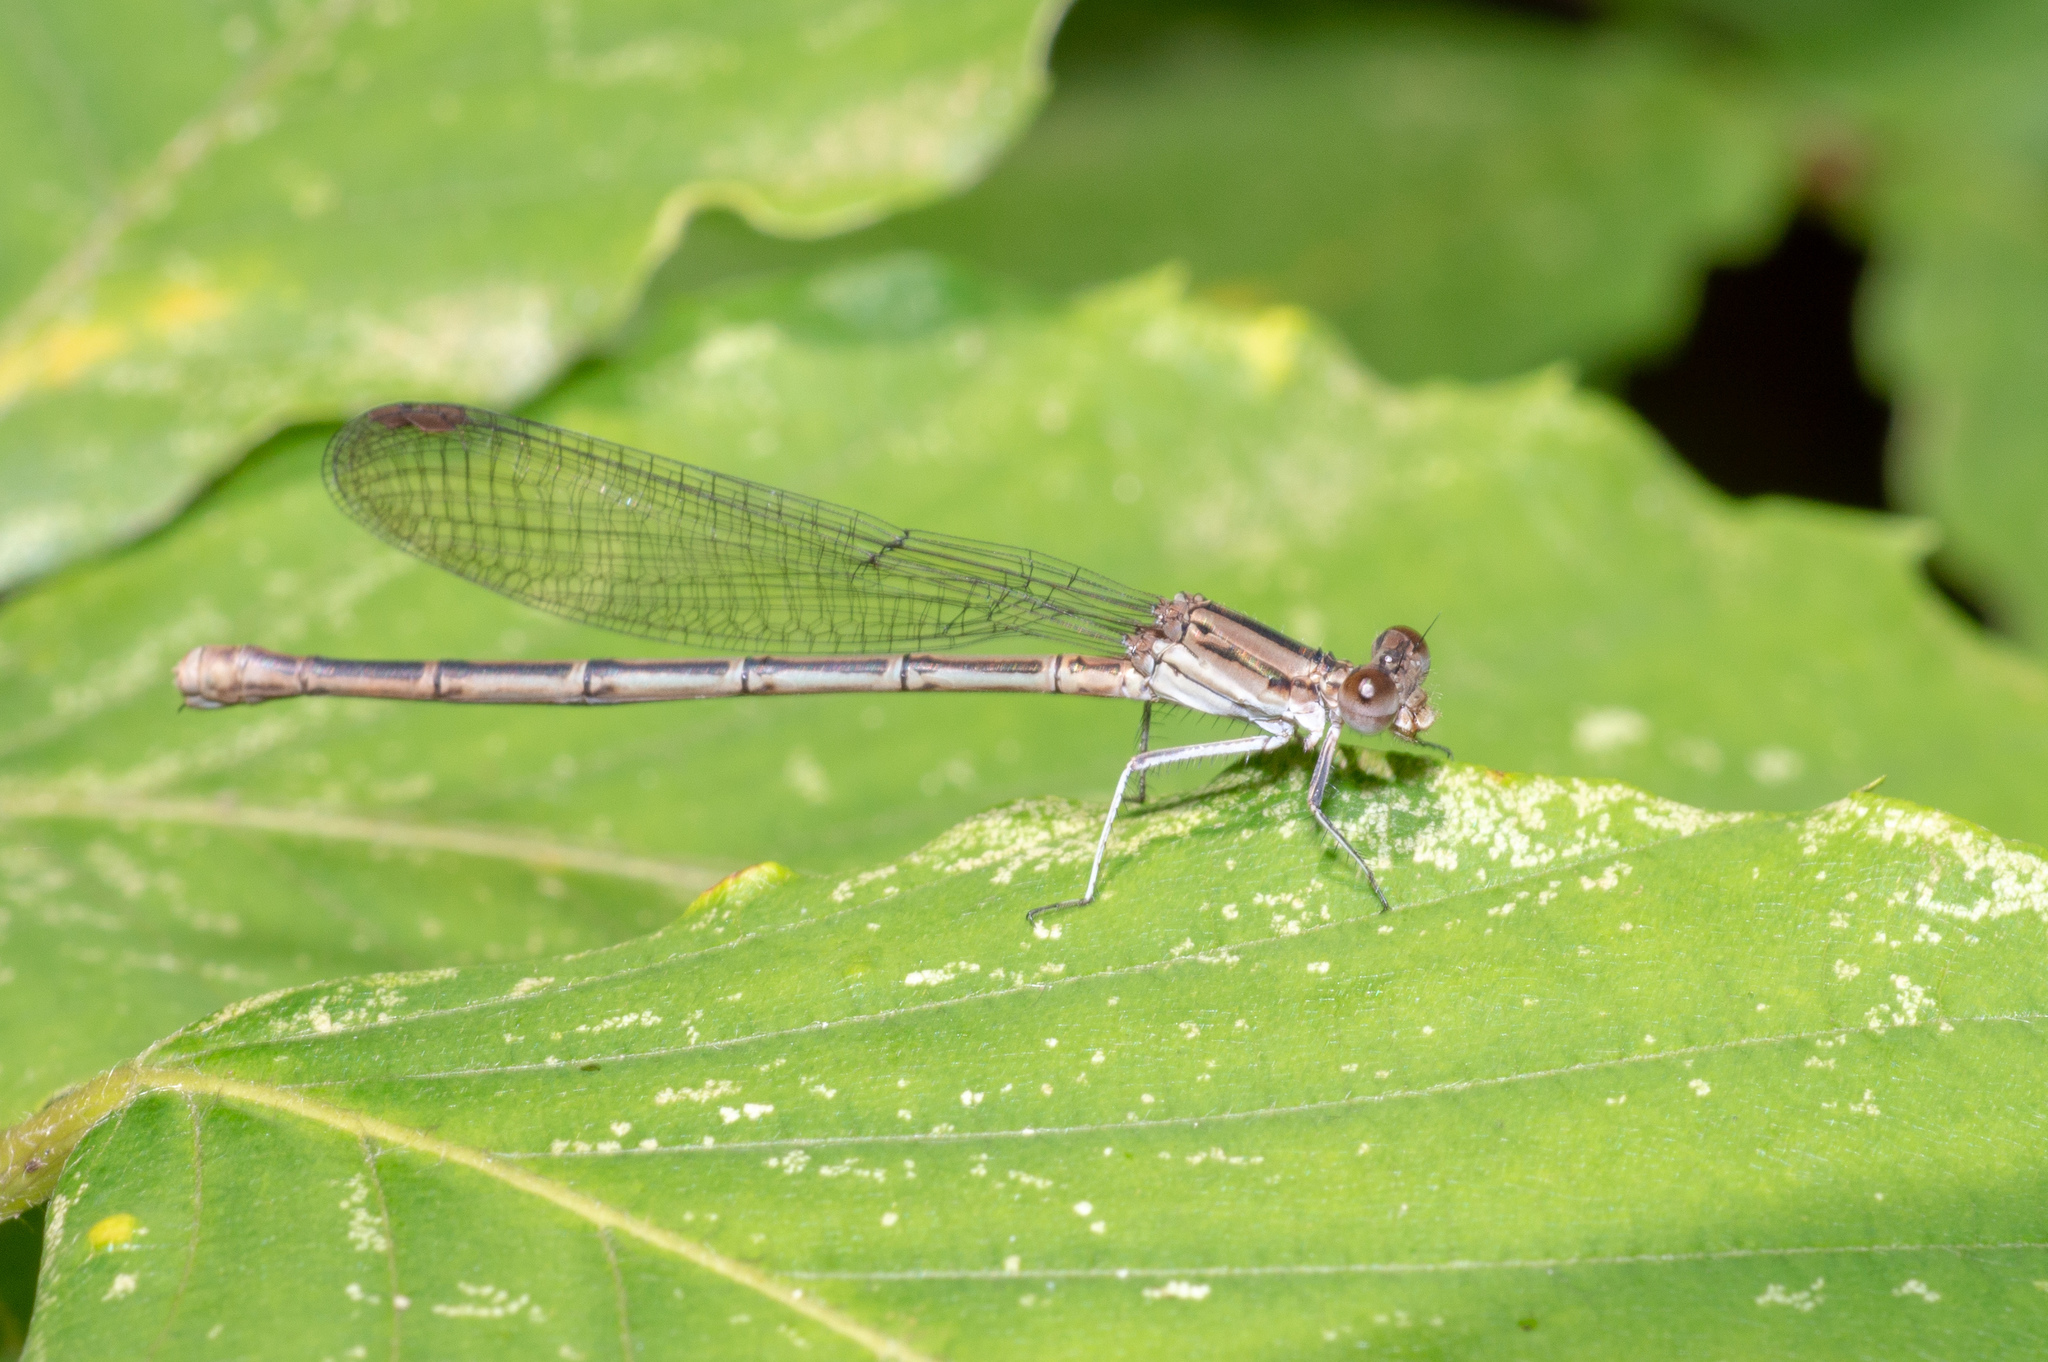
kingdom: Animalia
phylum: Arthropoda
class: Insecta
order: Odonata
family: Coenagrionidae
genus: Argia
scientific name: Argia fumipennis
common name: Variable dancer
